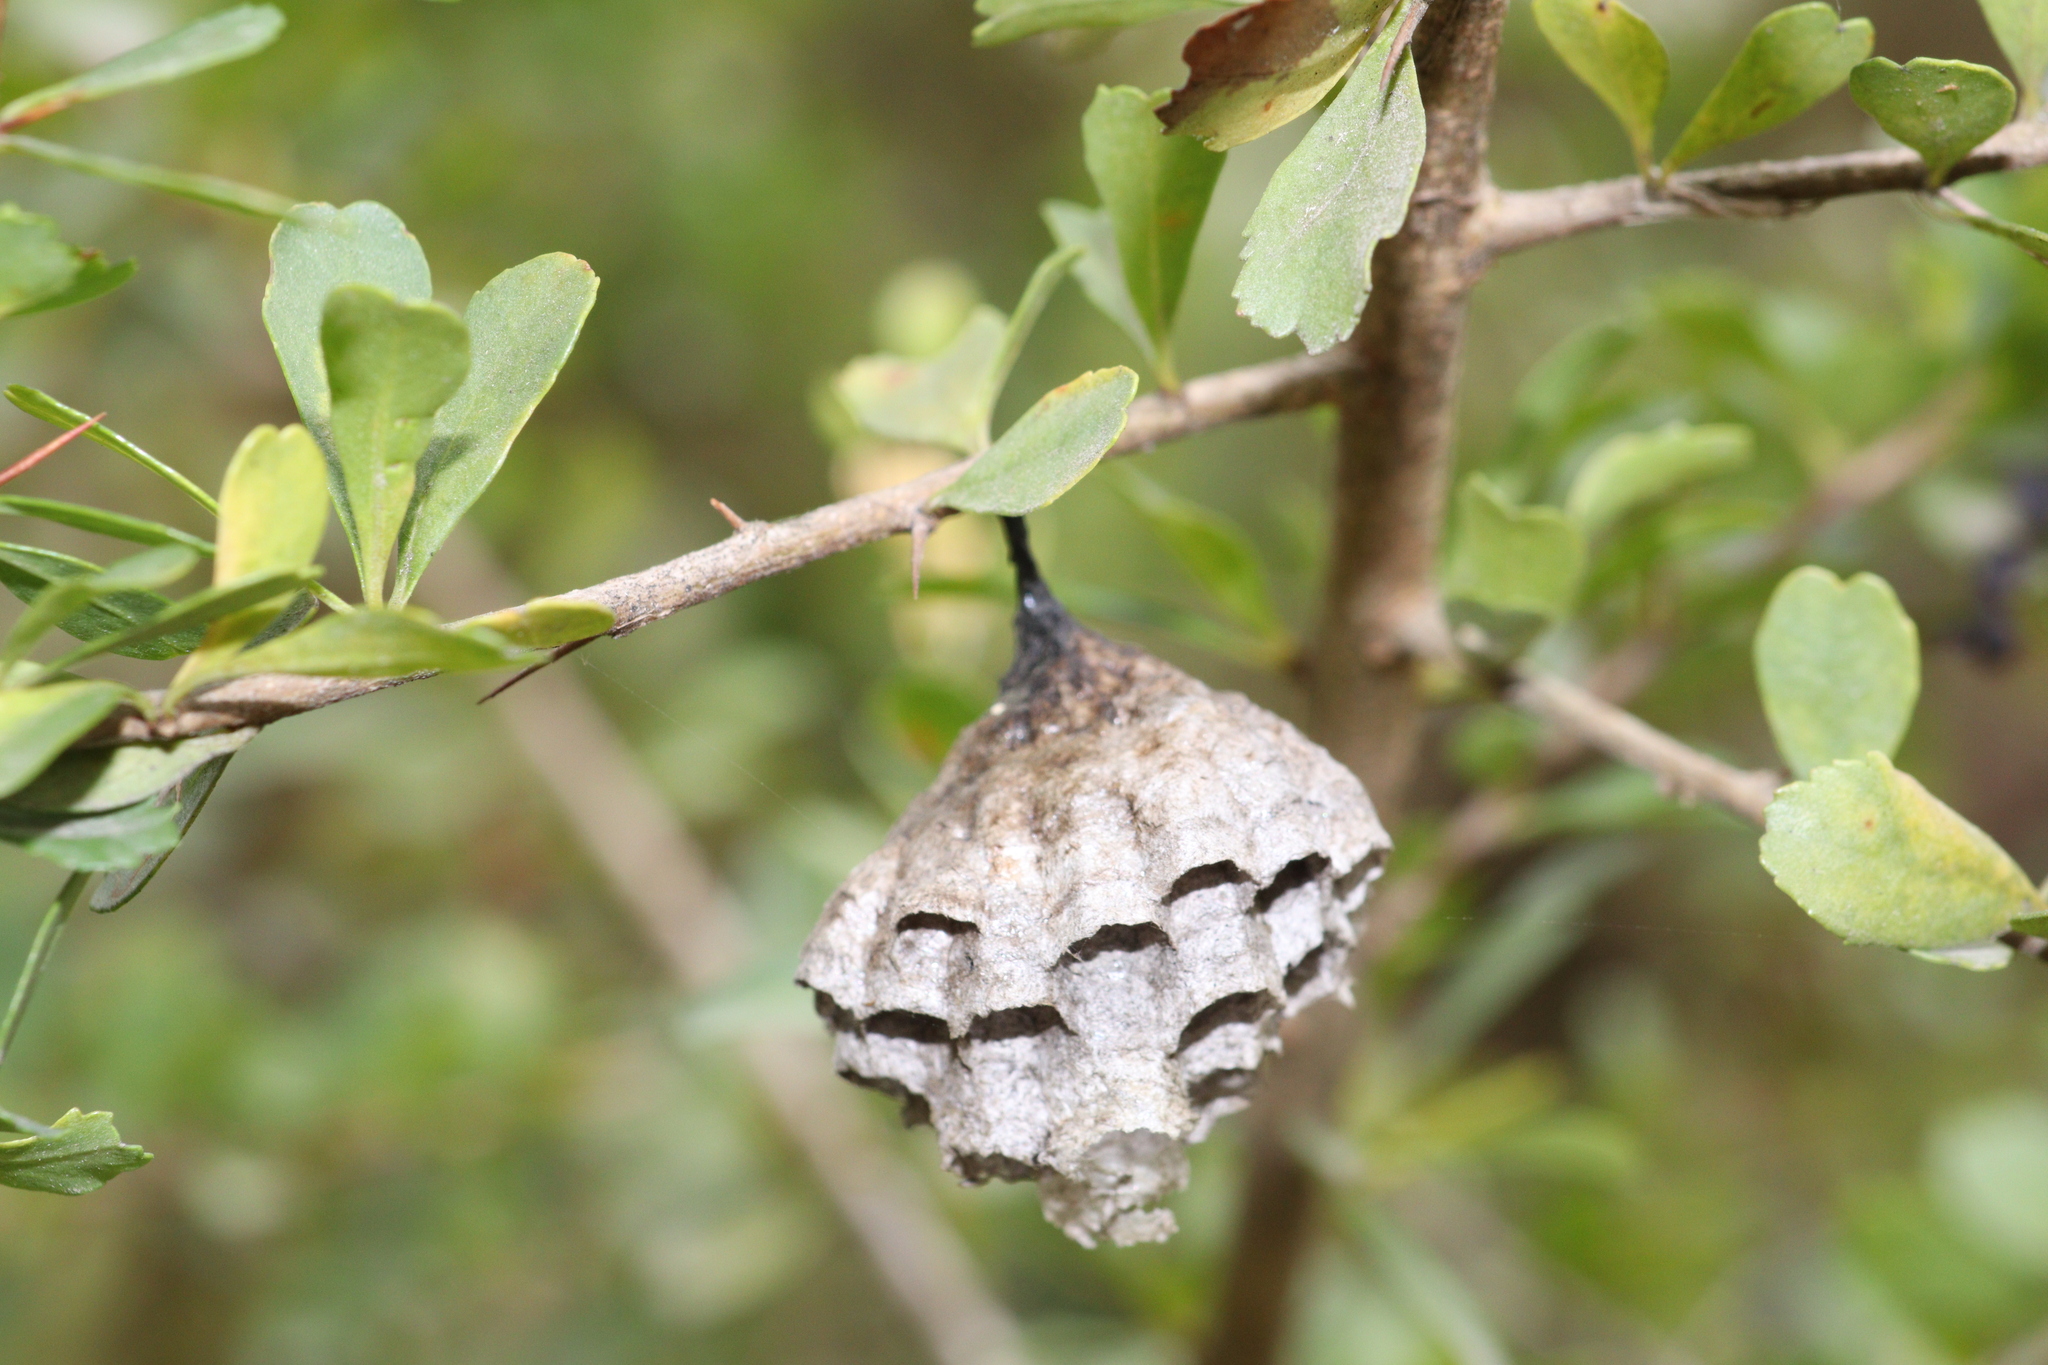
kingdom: Plantae
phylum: Tracheophyta
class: Magnoliopsida
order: Apiales
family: Pittosporaceae
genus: Bursaria
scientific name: Bursaria spinosa
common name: Australian blackthorn
